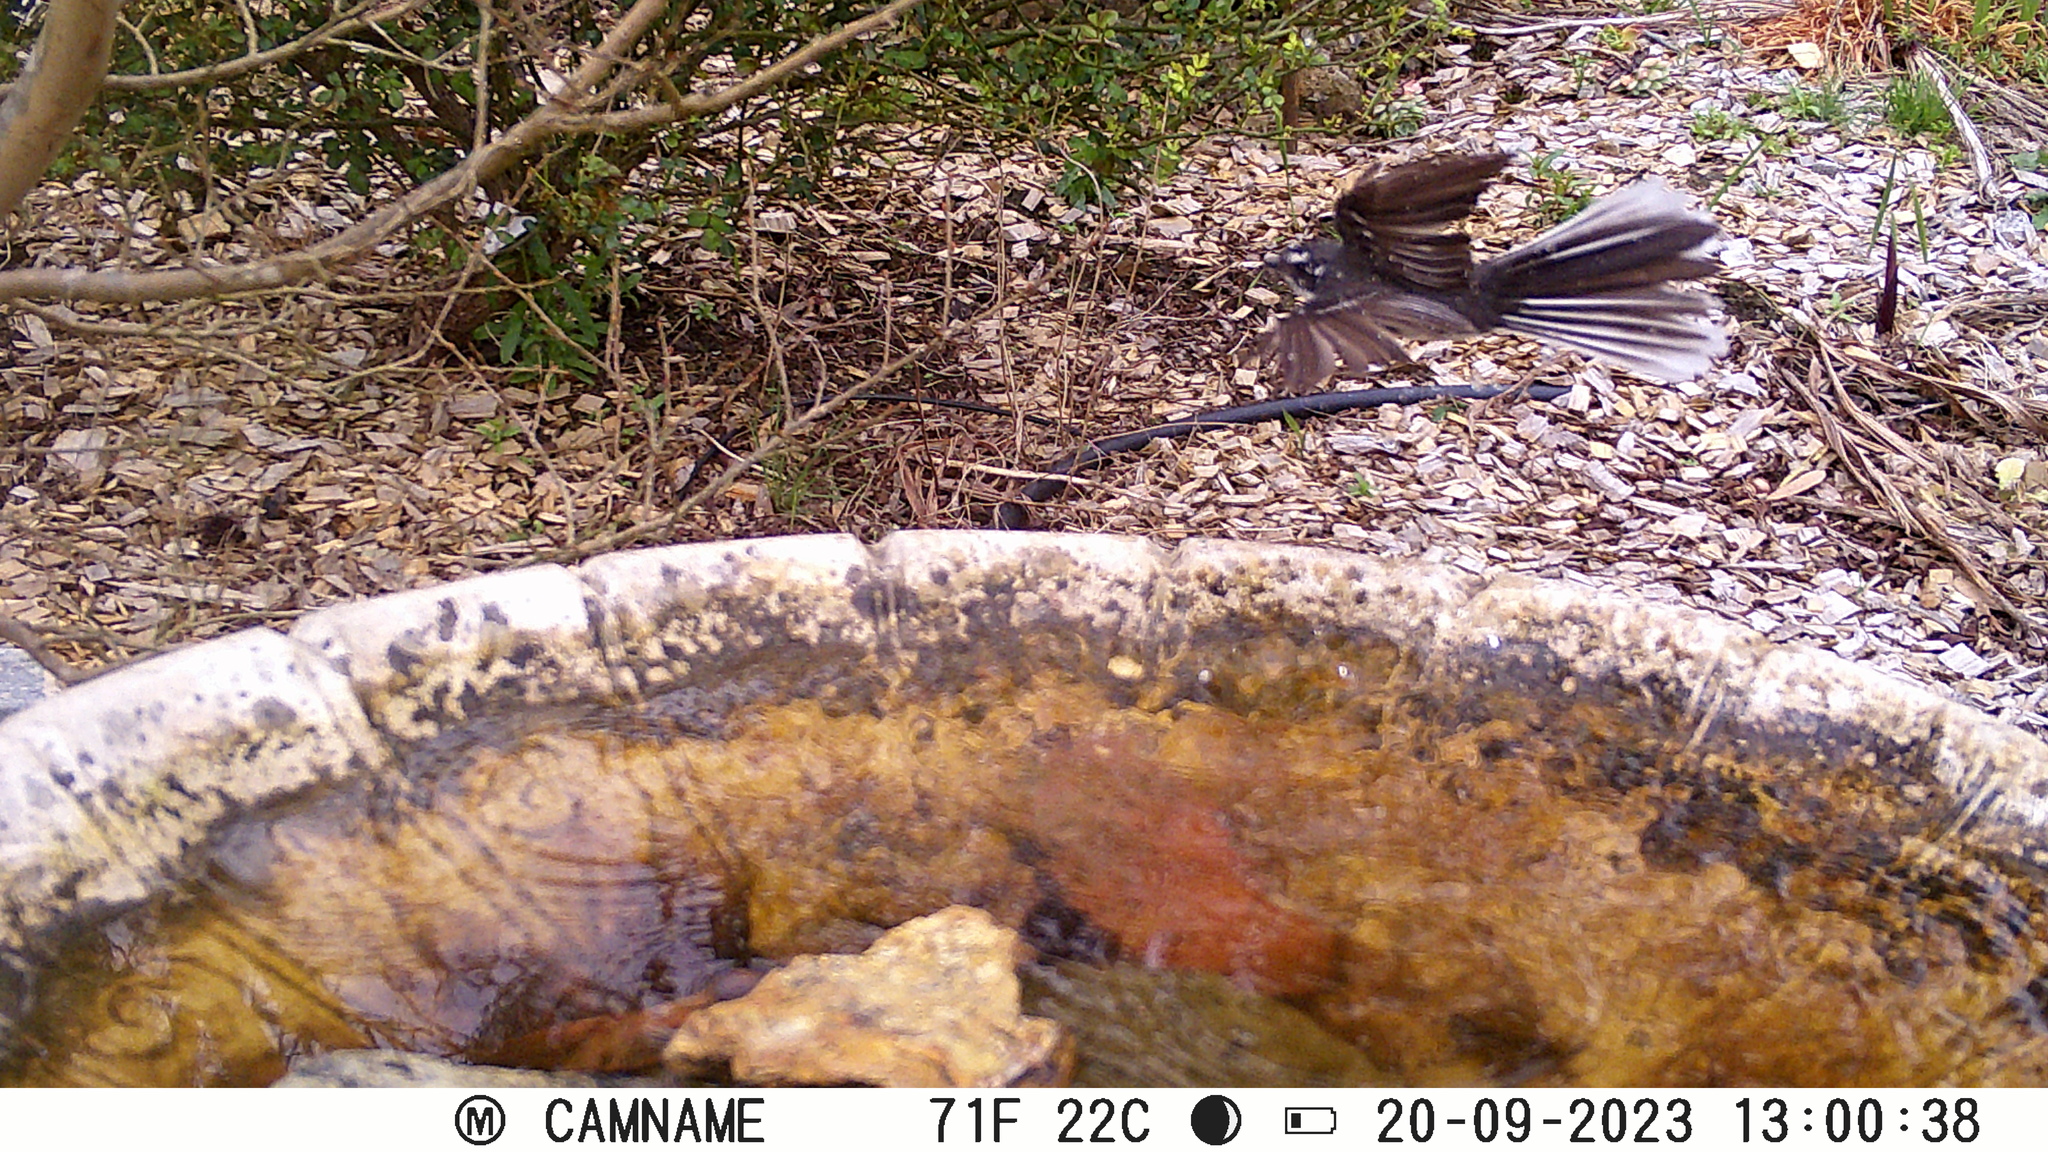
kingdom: Animalia
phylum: Chordata
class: Aves
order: Passeriformes
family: Rhipiduridae
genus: Rhipidura
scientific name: Rhipidura albiscapa
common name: Grey fantail
